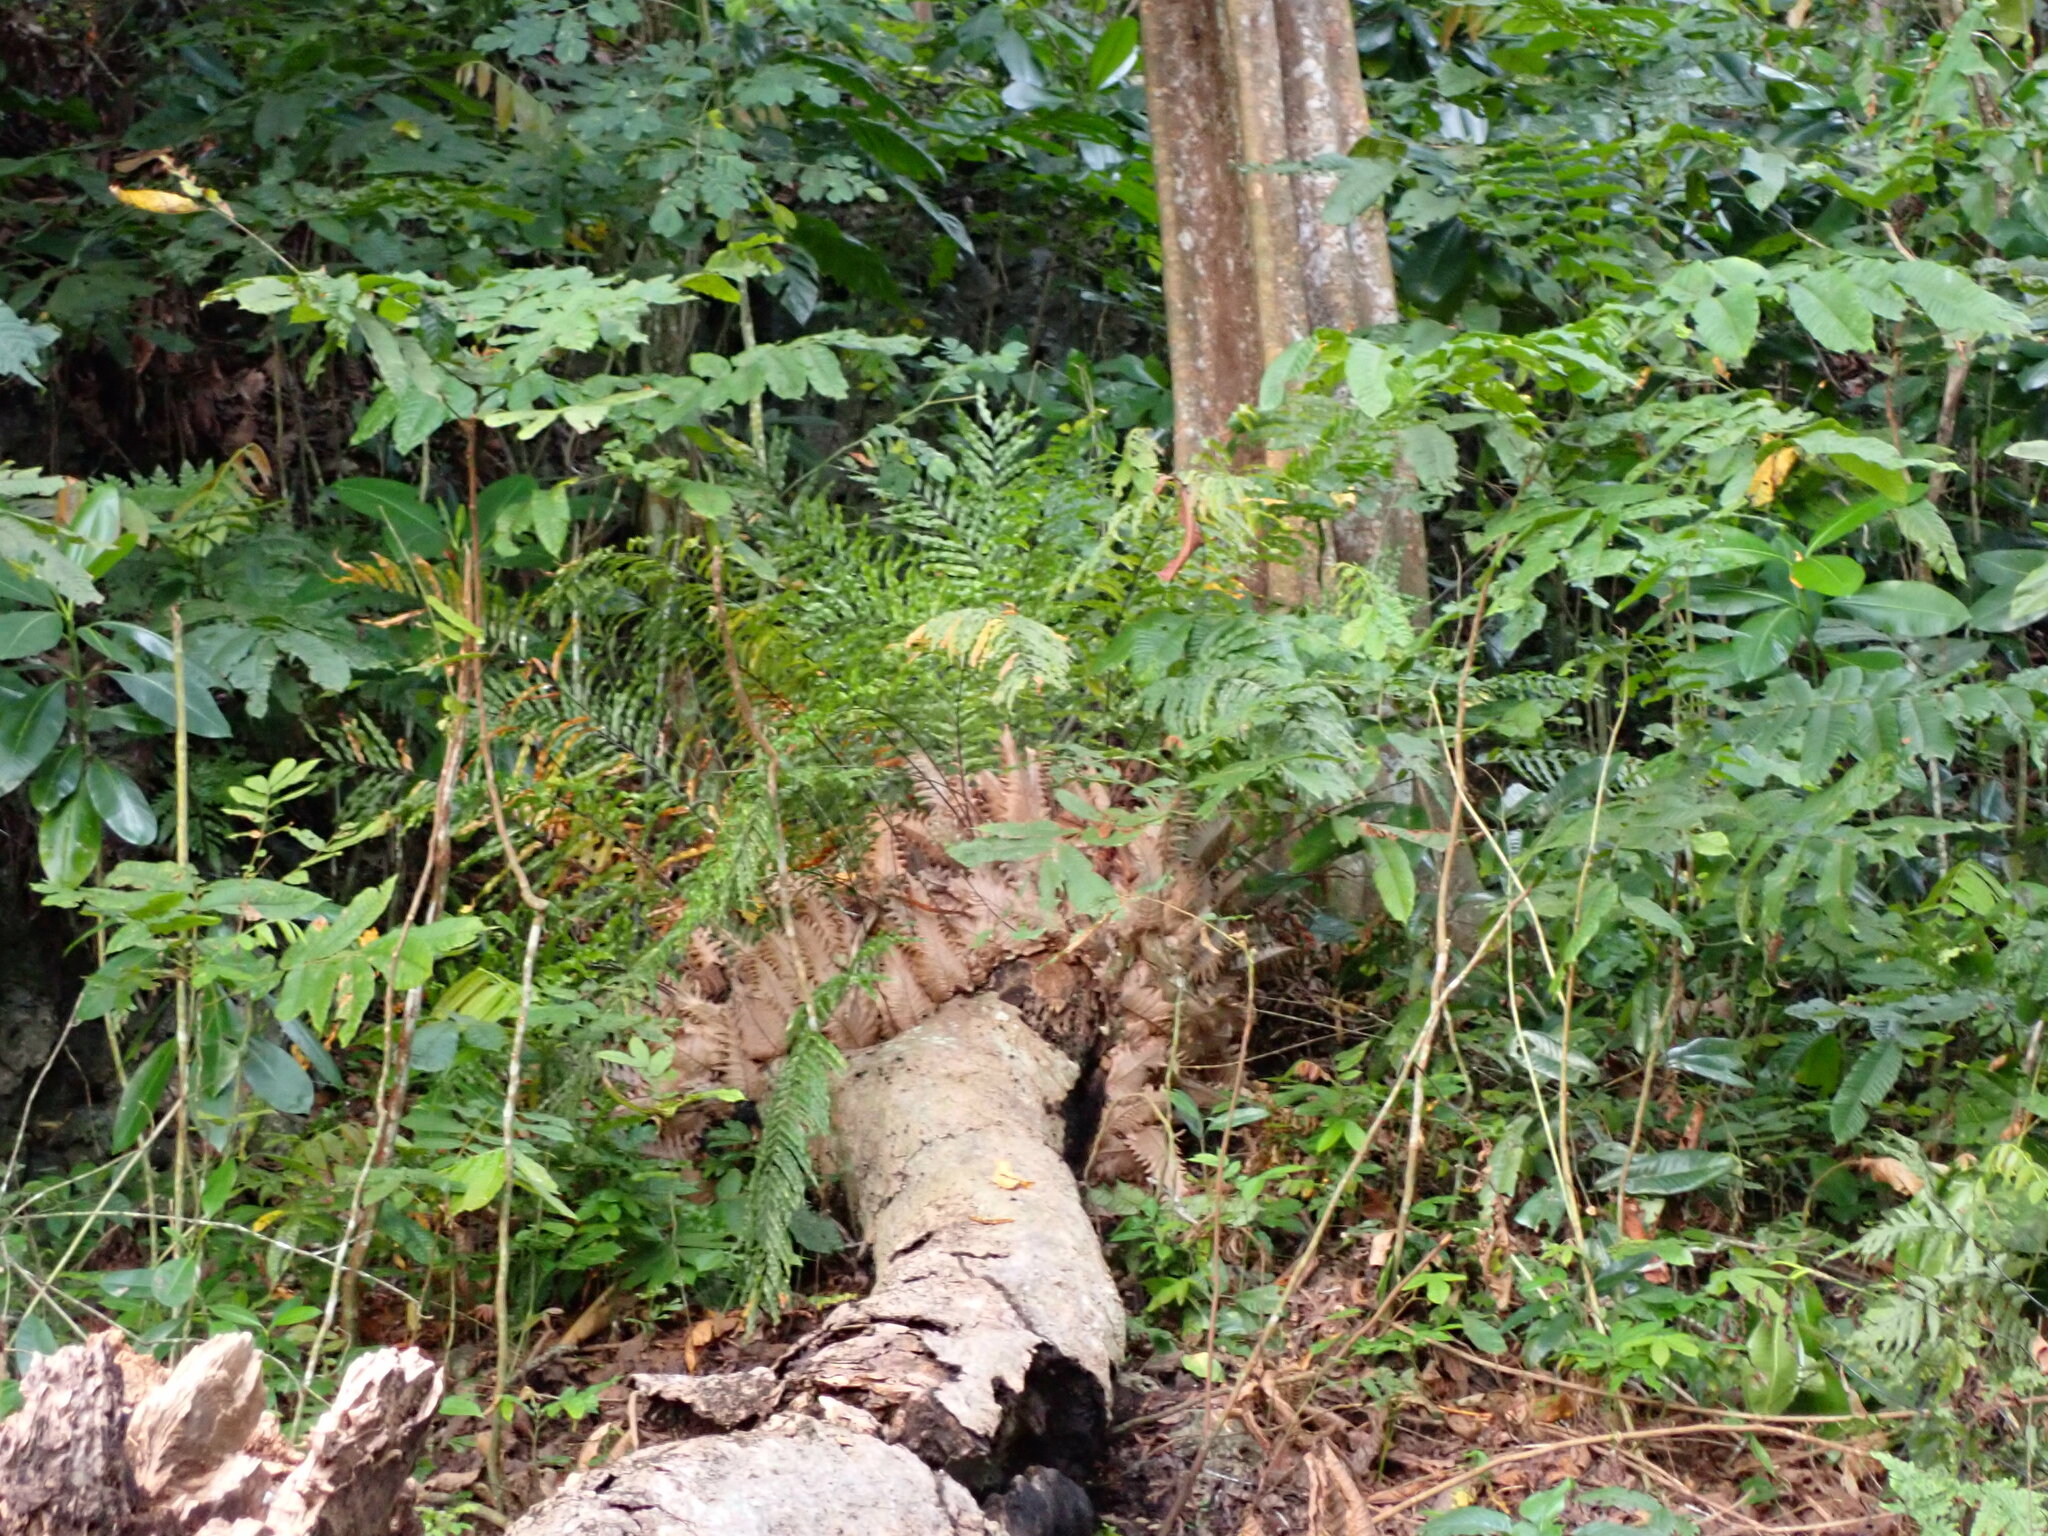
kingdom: Plantae
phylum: Tracheophyta
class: Polypodiopsida
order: Polypodiales
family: Polypodiaceae
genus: Drynaria
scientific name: Drynaria rigidula
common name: Basket fern
